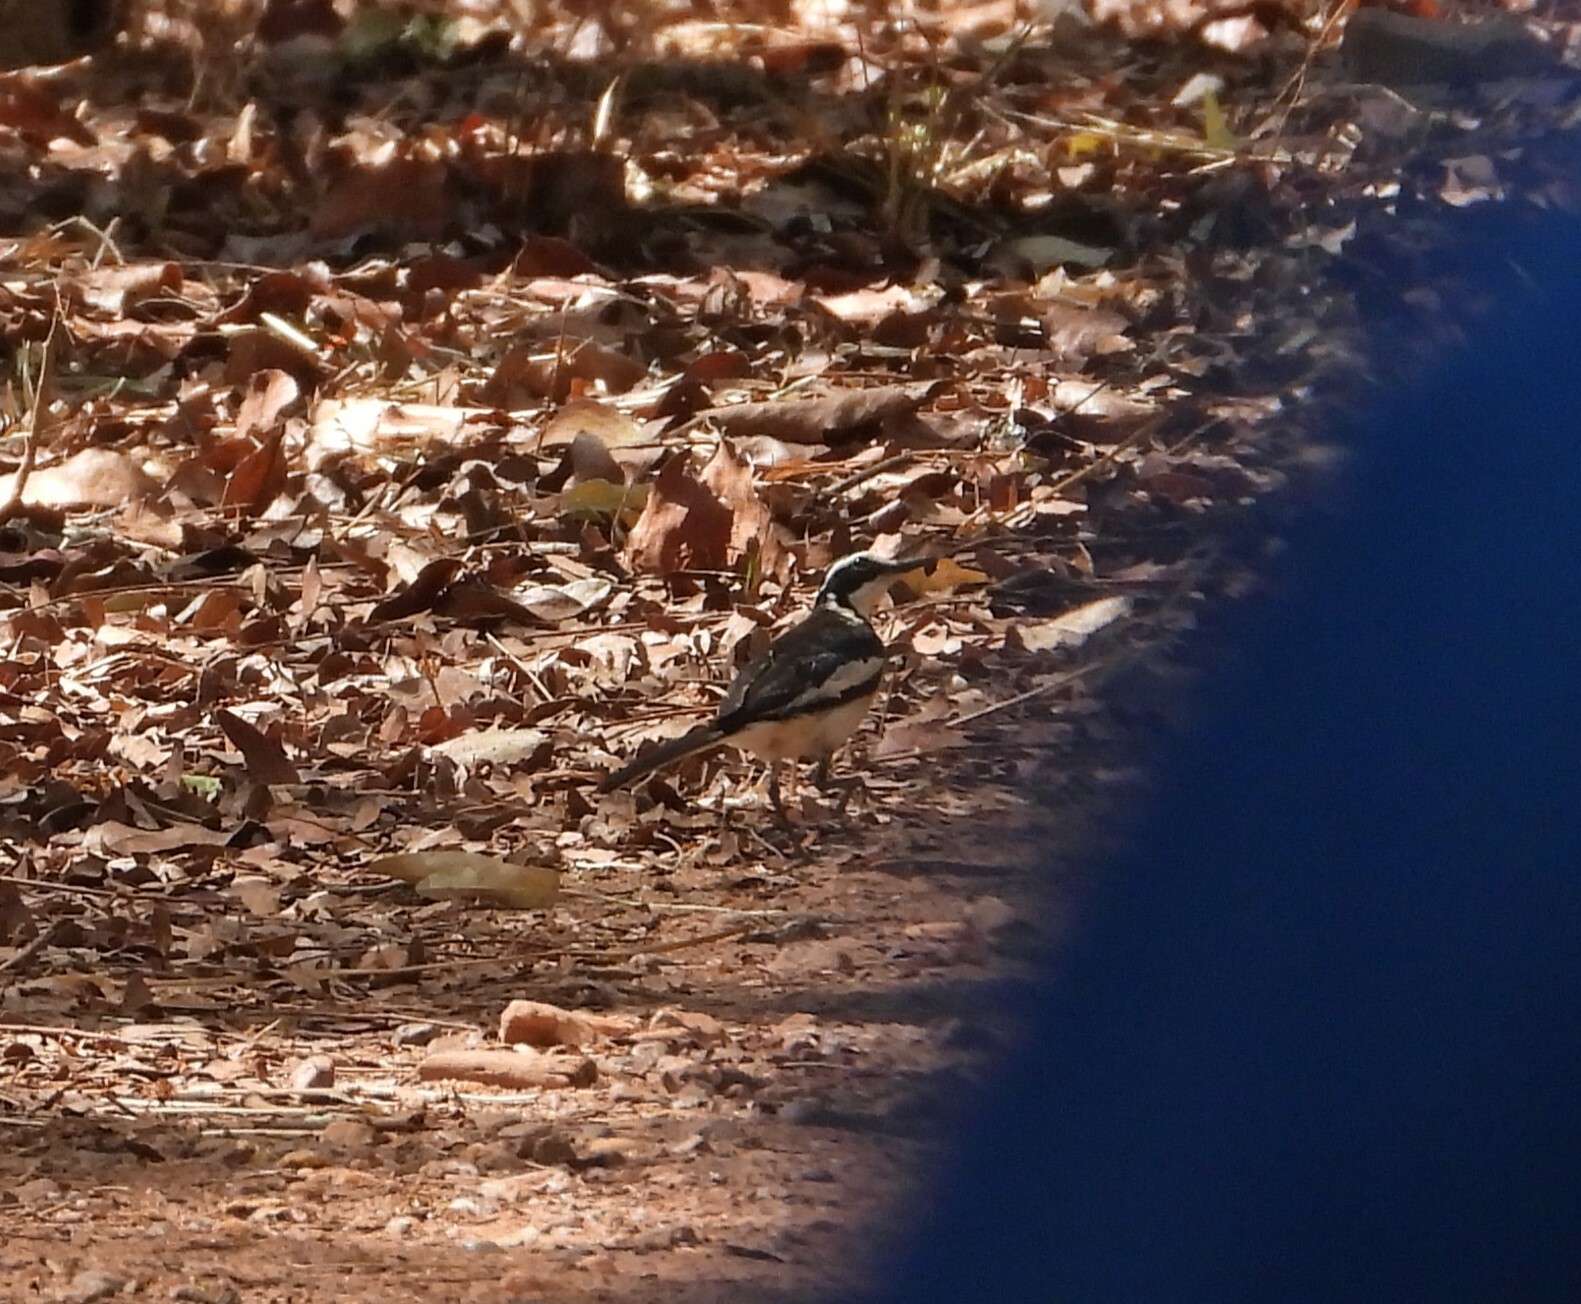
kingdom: Animalia
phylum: Chordata
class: Aves
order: Passeriformes
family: Motacillidae
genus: Motacilla
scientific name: Motacilla aguimp
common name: African pied wagtail
